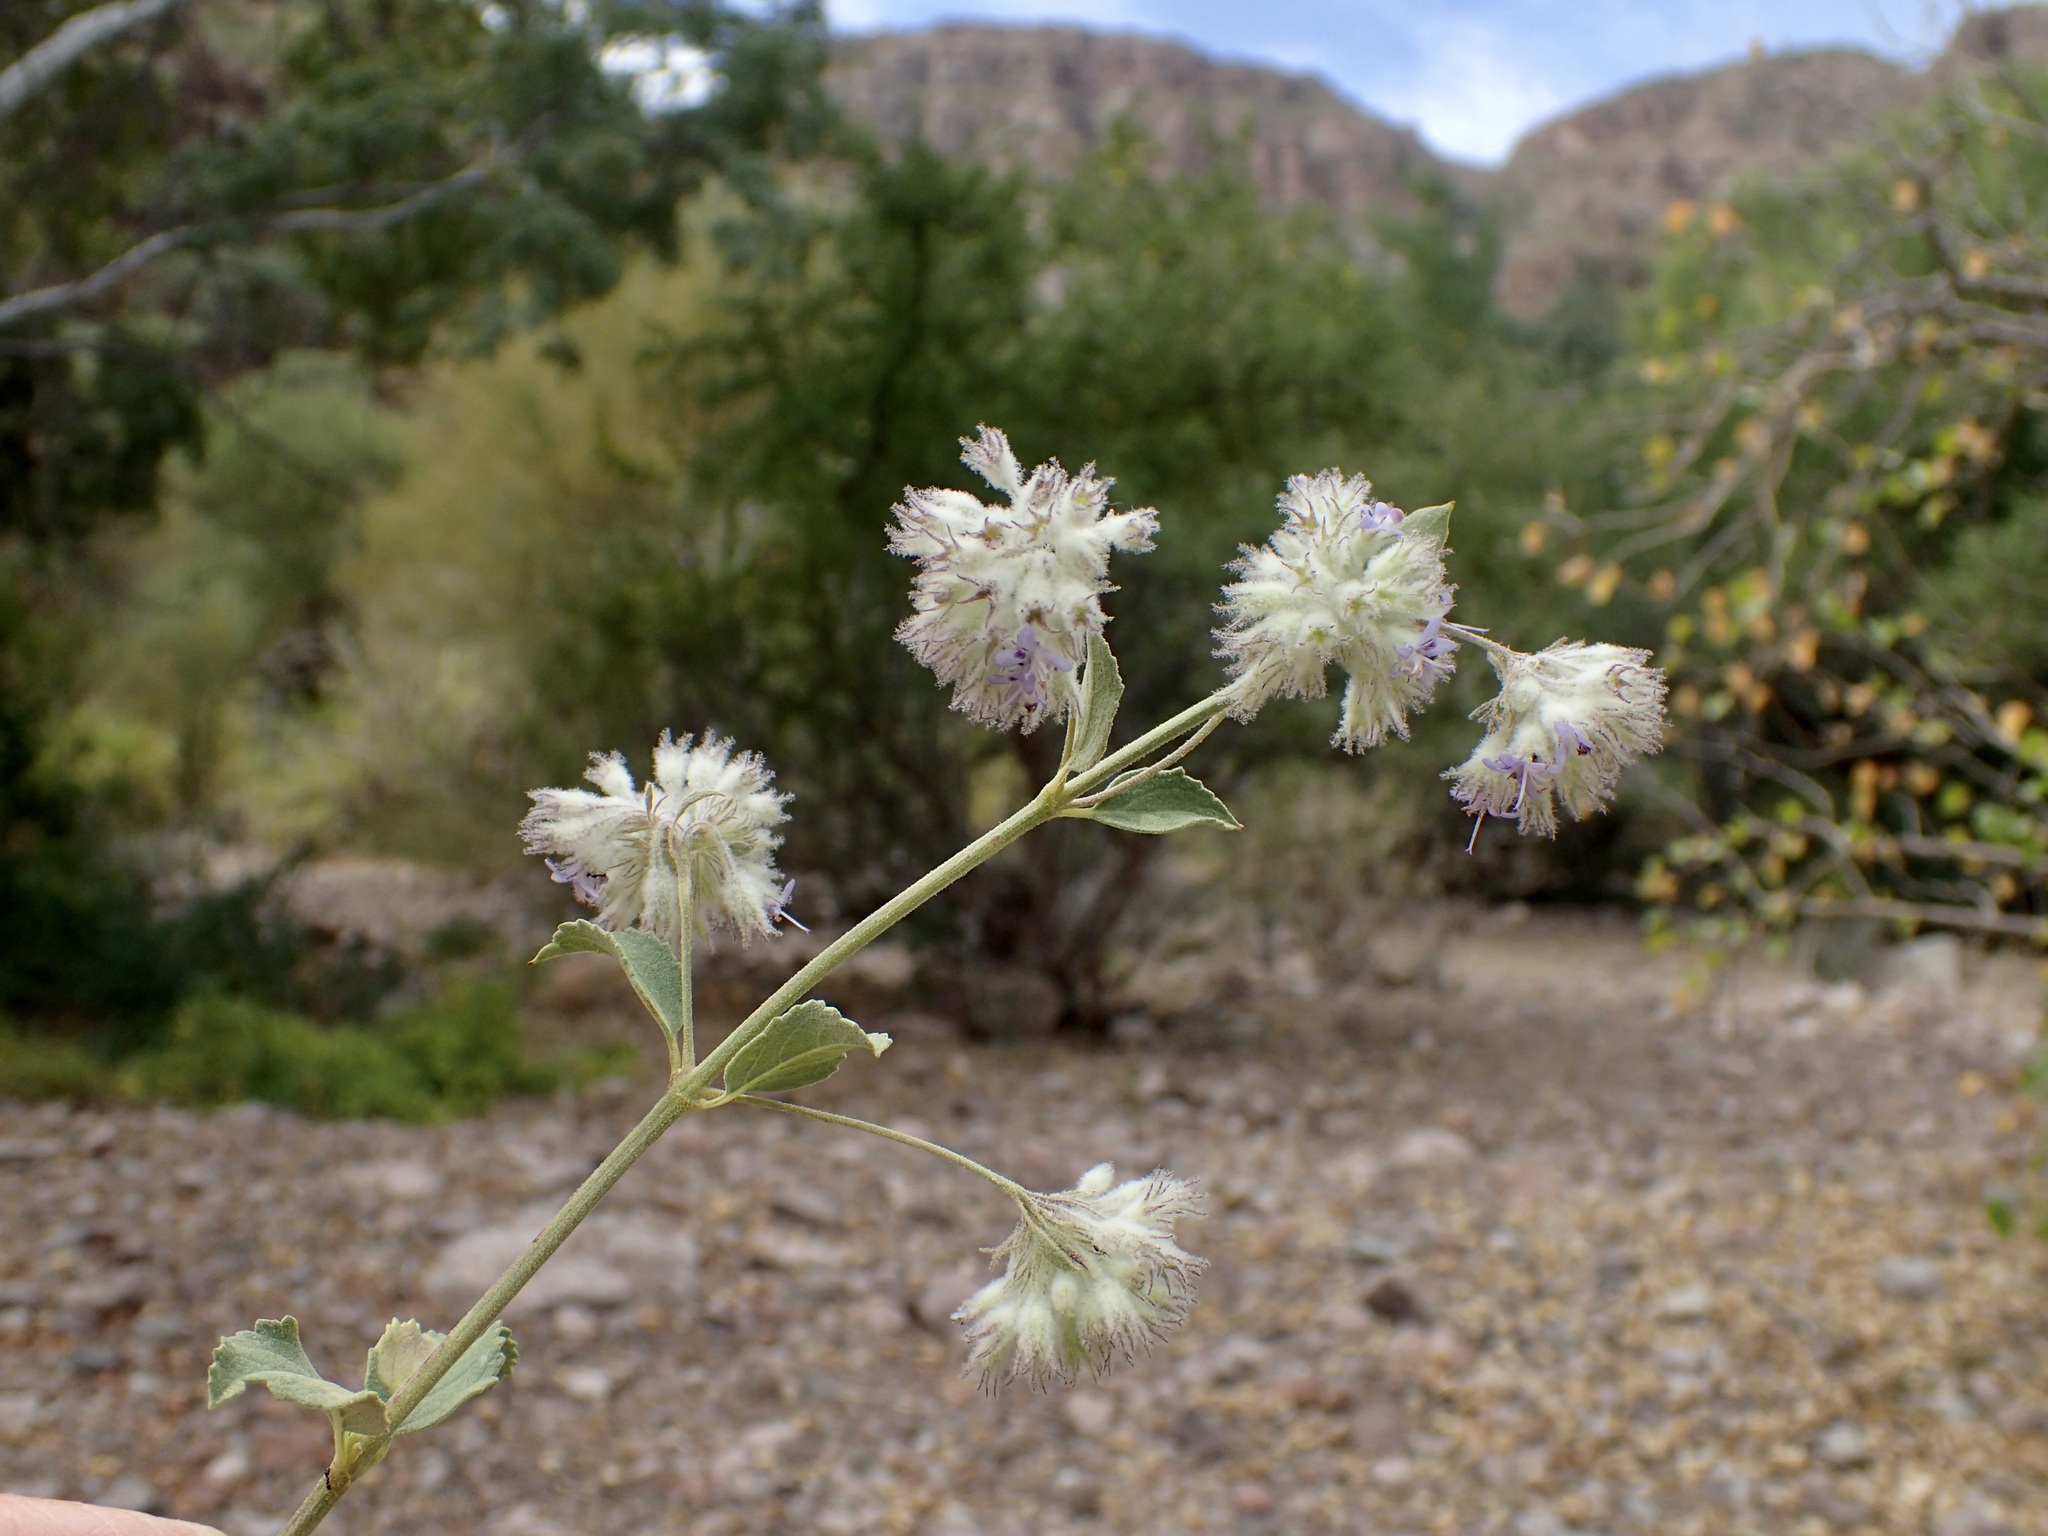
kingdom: Plantae
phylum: Tracheophyta
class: Magnoliopsida
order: Lamiales
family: Lamiaceae
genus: Condea
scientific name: Condea emoryi
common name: Chia
